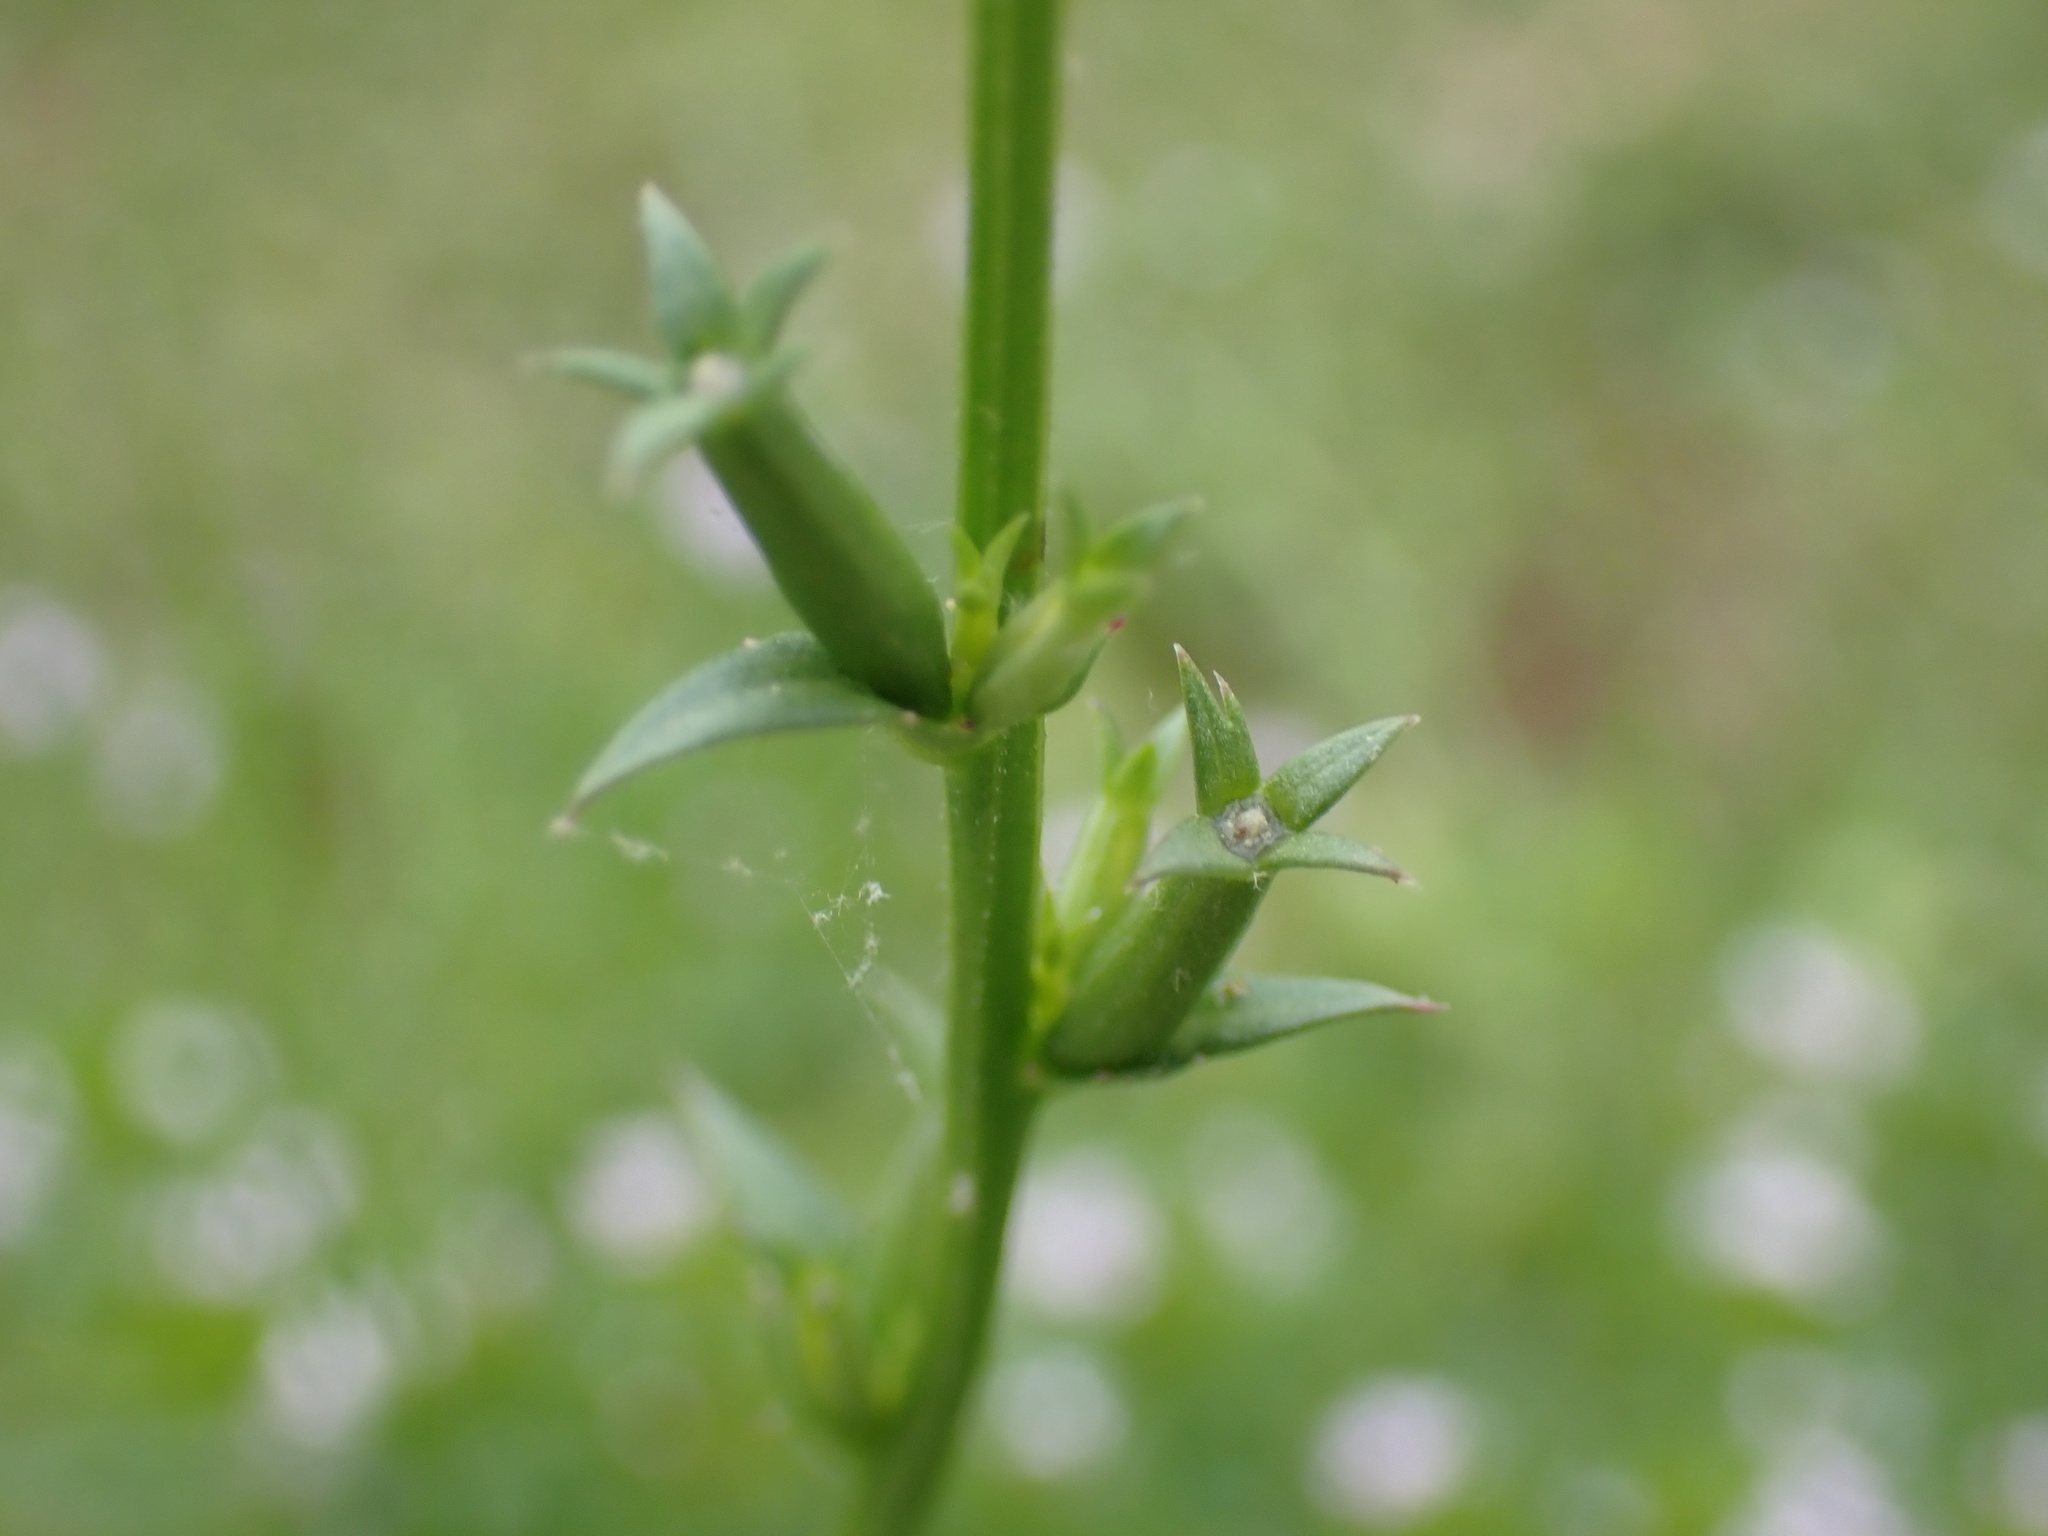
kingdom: Plantae
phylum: Tracheophyta
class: Magnoliopsida
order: Asterales
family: Campanulaceae
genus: Triodanis
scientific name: Triodanis biflora
